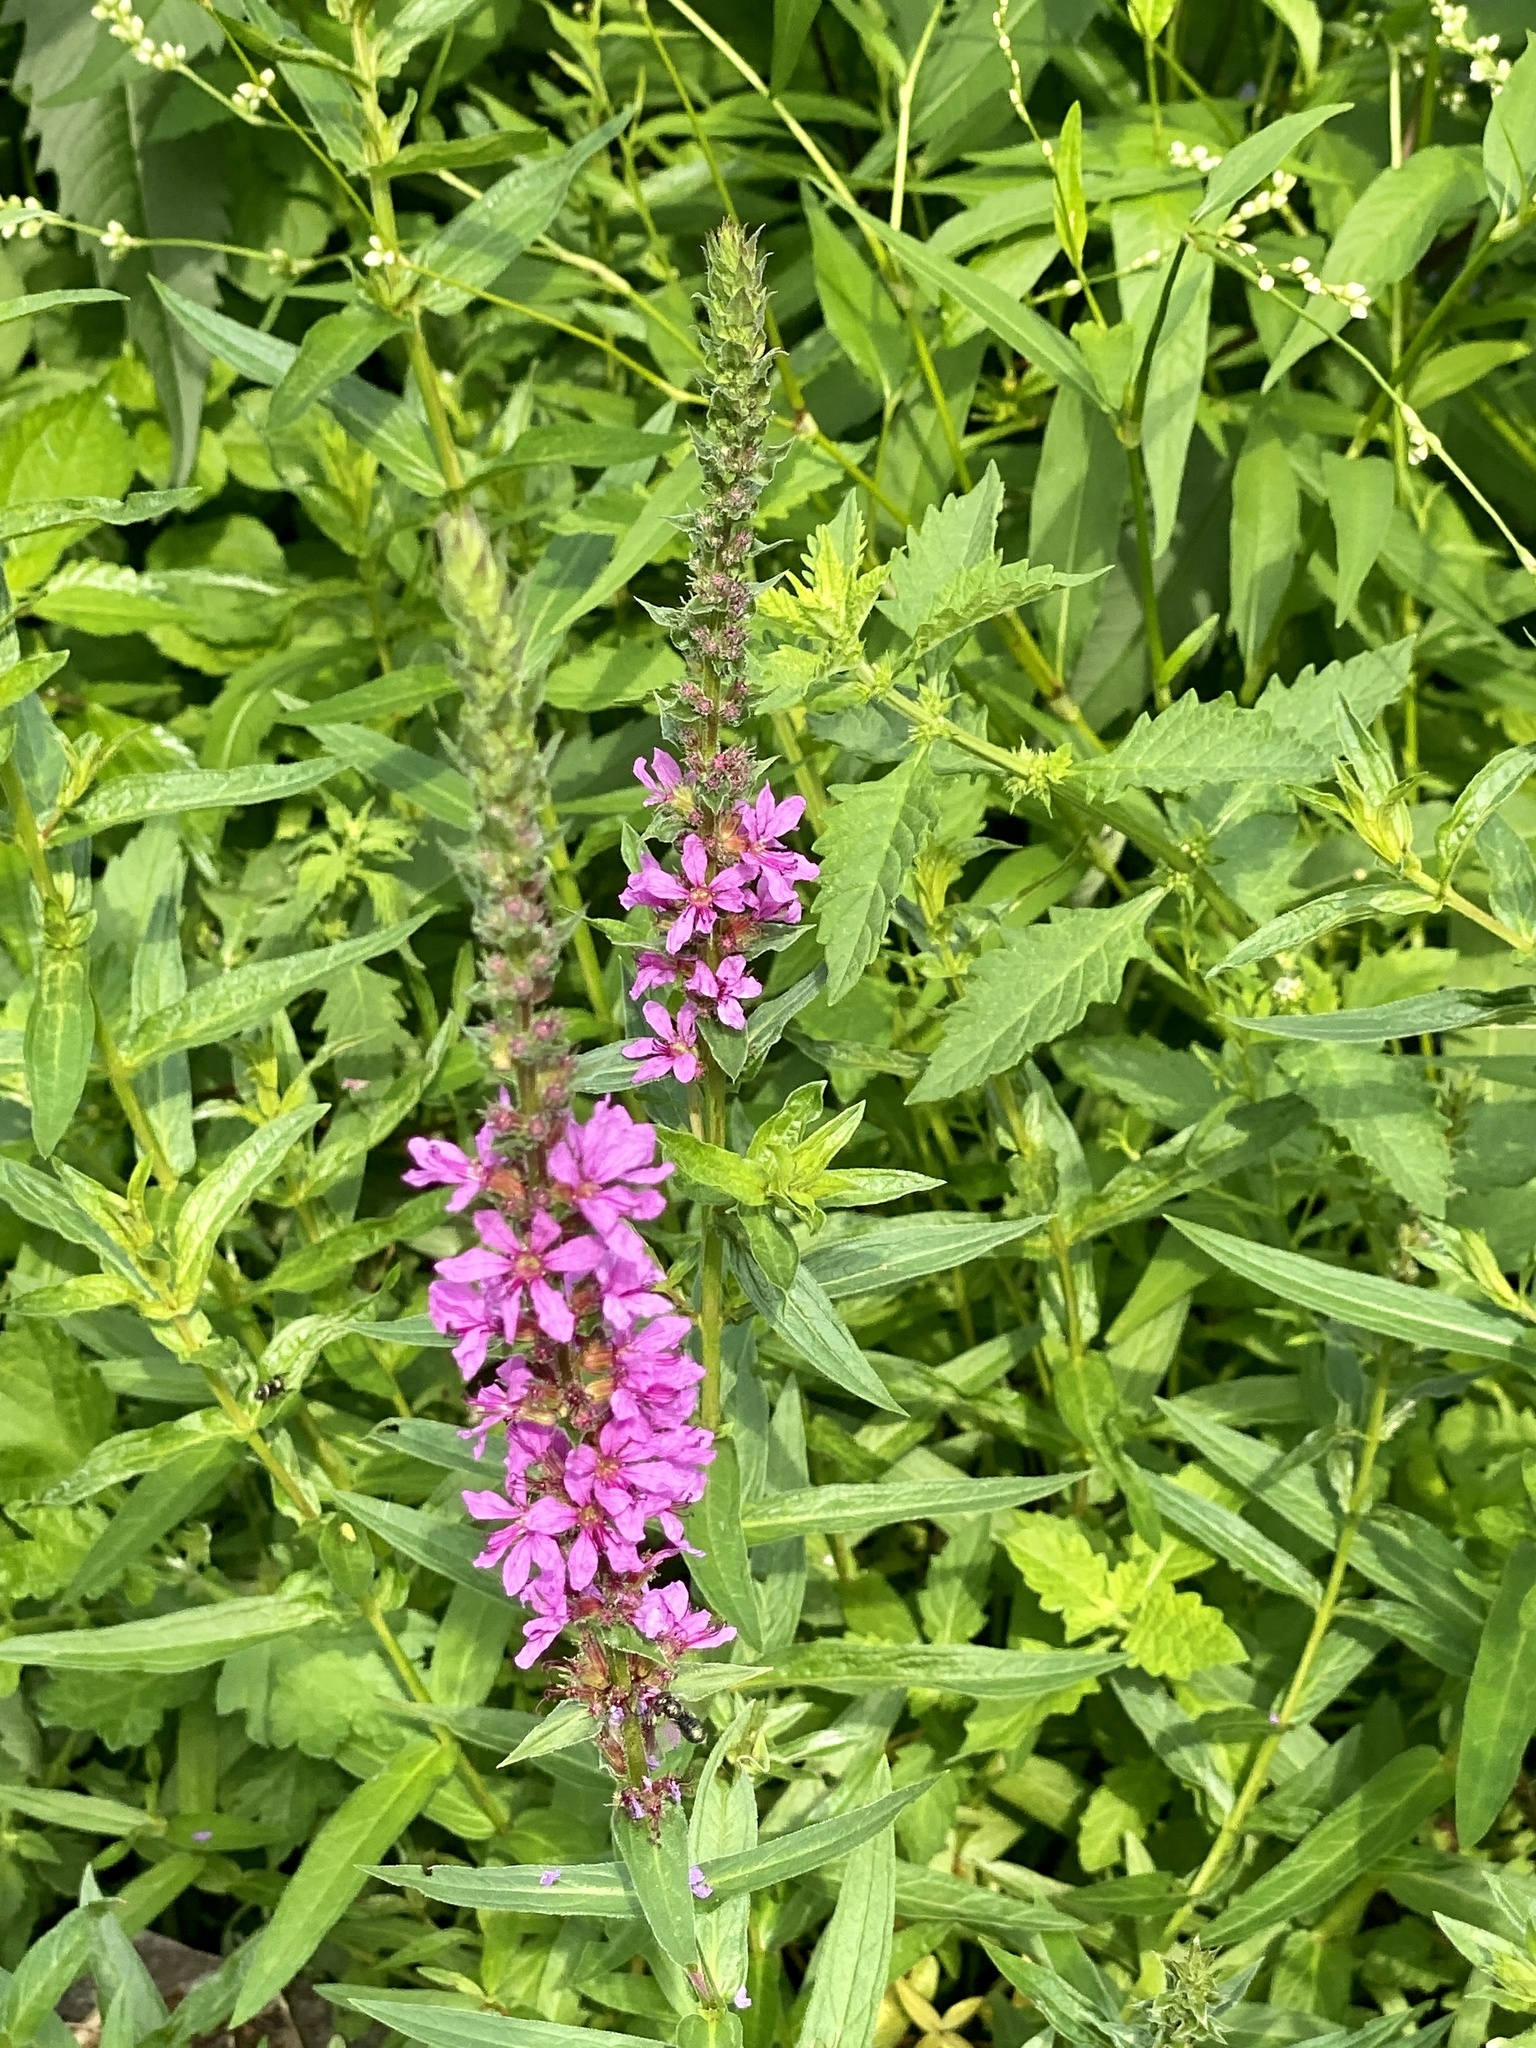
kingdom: Plantae
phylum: Tracheophyta
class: Magnoliopsida
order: Myrtales
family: Lythraceae
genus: Lythrum
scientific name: Lythrum salicaria
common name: Purple loosestrife
